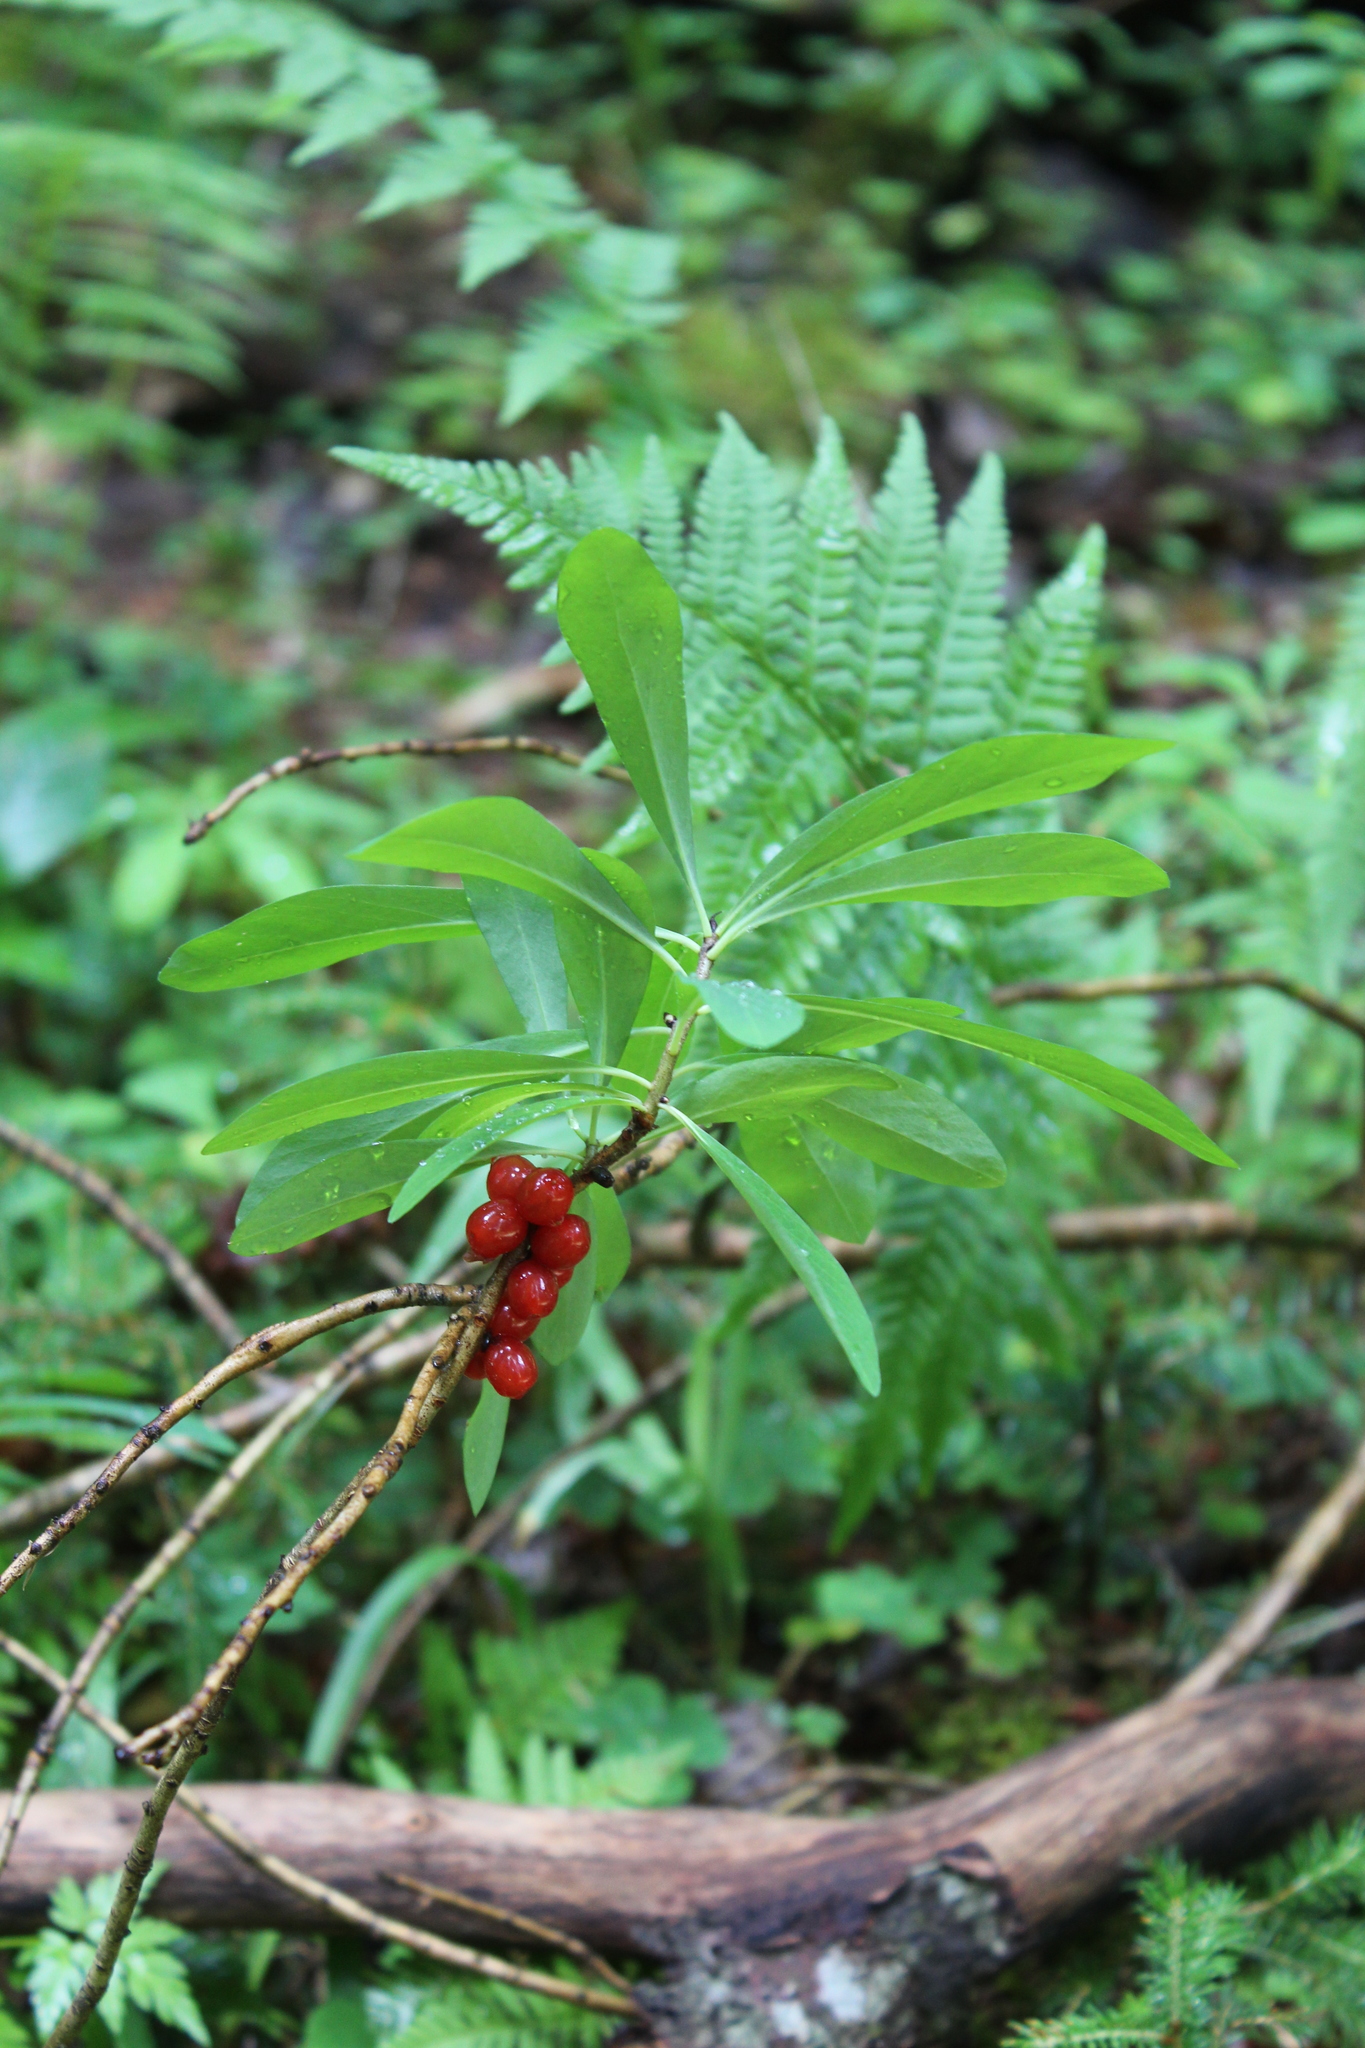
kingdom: Plantae
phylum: Tracheophyta
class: Magnoliopsida
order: Malvales
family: Thymelaeaceae
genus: Daphne
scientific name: Daphne mezereum
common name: Mezereon
